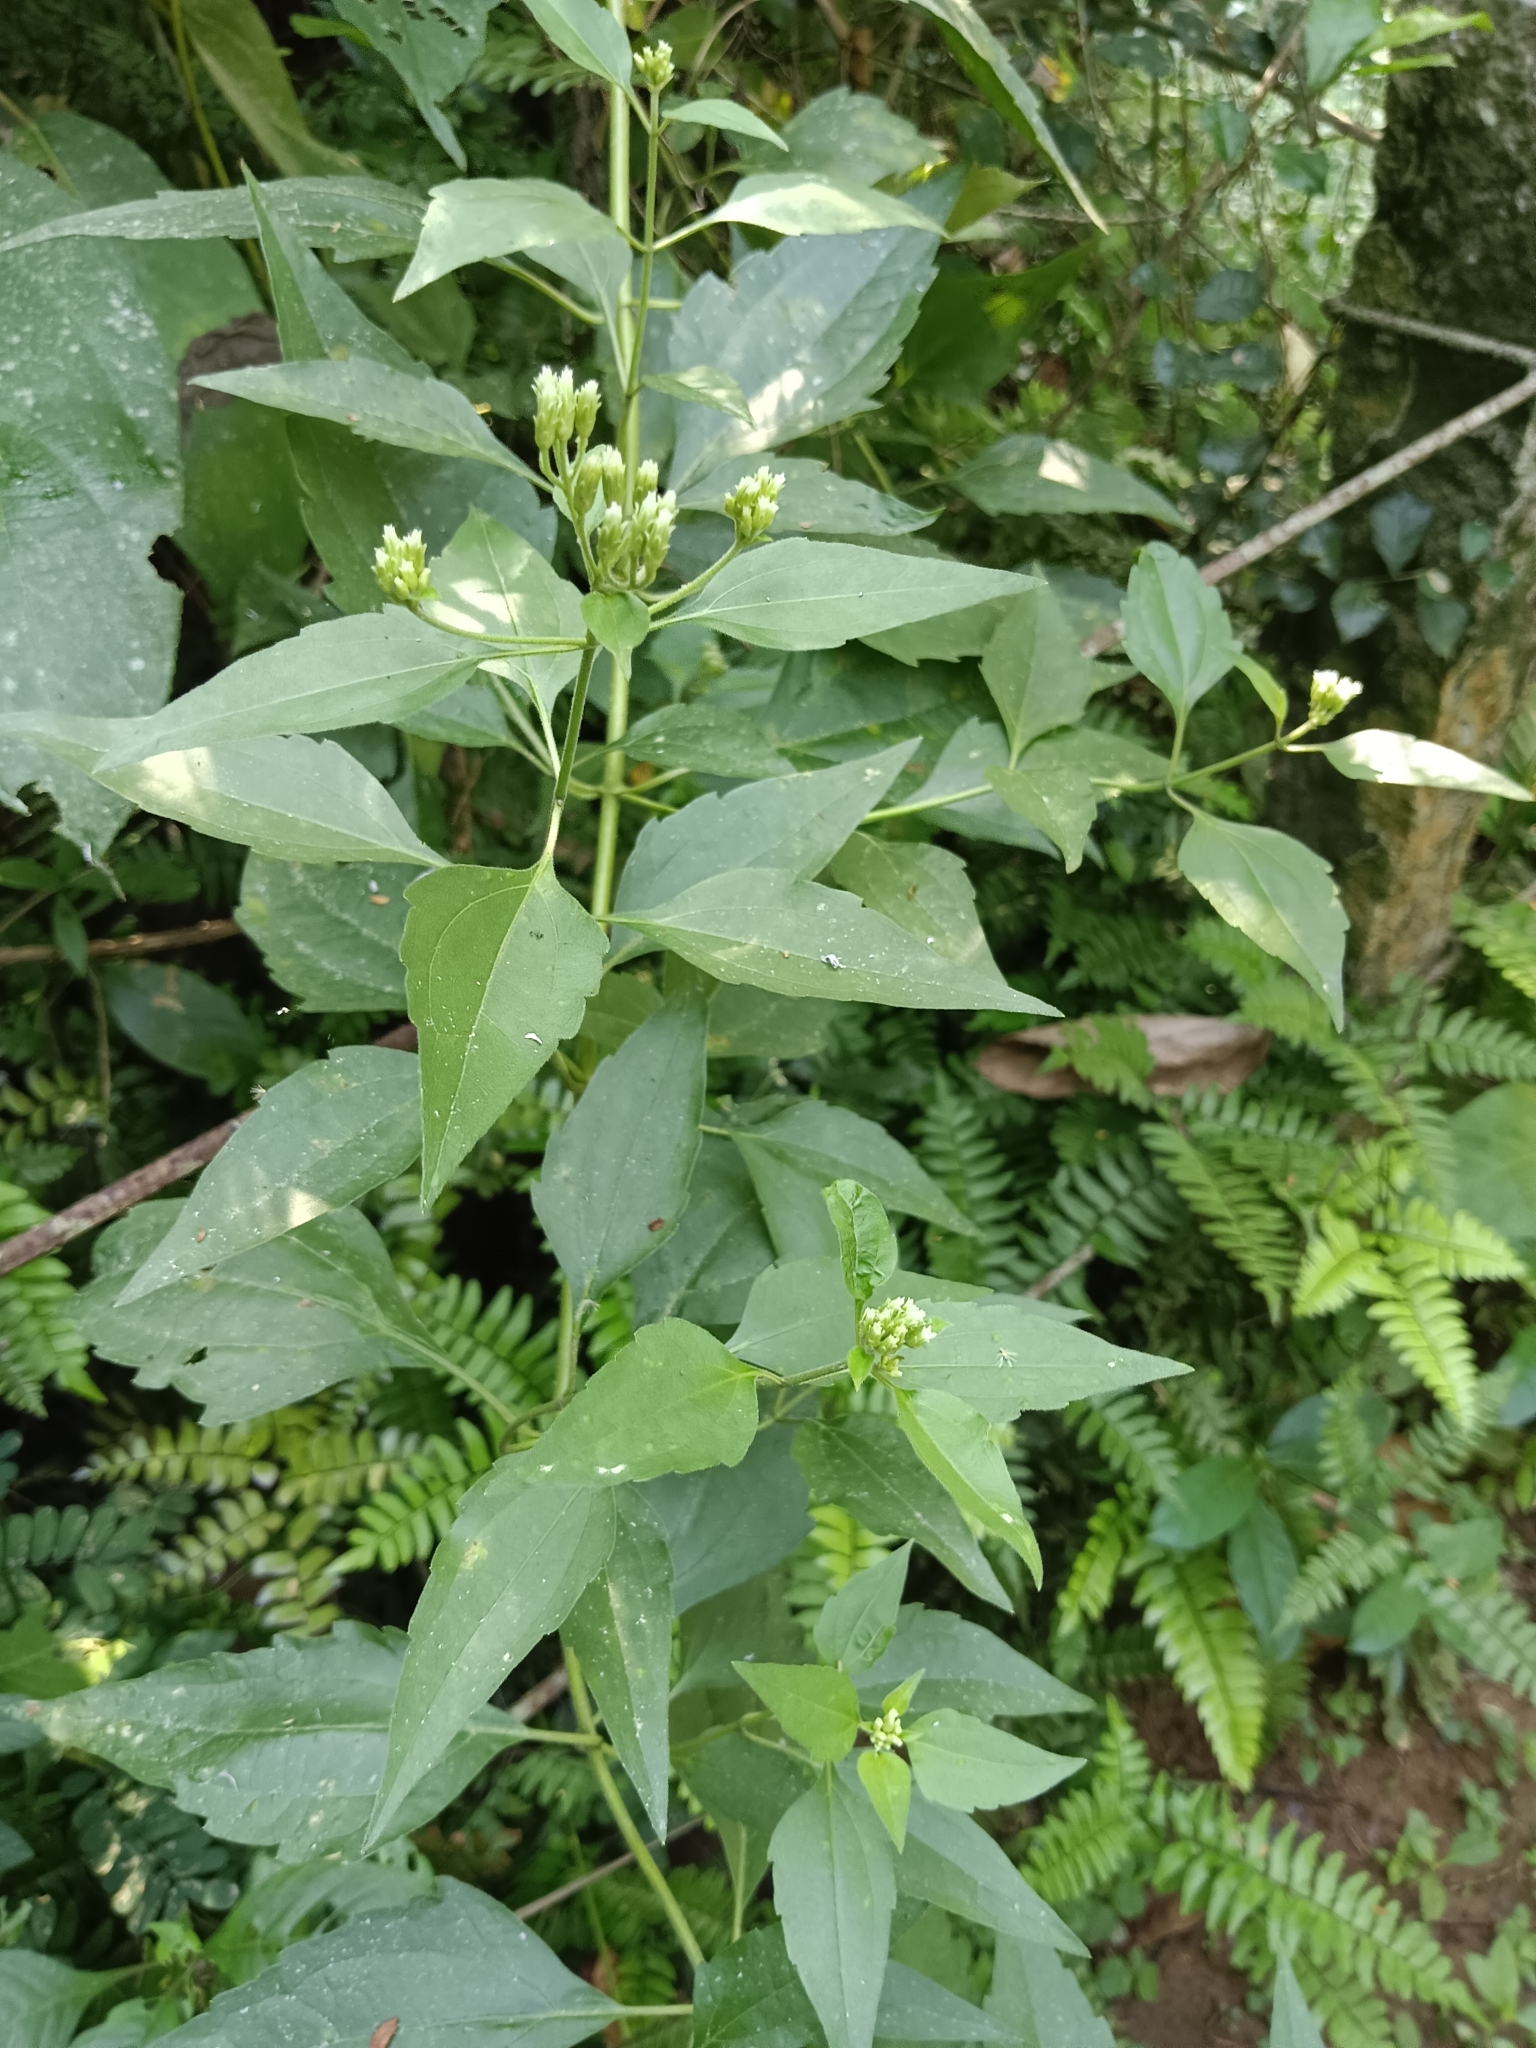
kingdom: Plantae
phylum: Tracheophyta
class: Magnoliopsida
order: Asterales
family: Asteraceae
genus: Chromolaena
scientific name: Chromolaena odorata
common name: Siamweed
